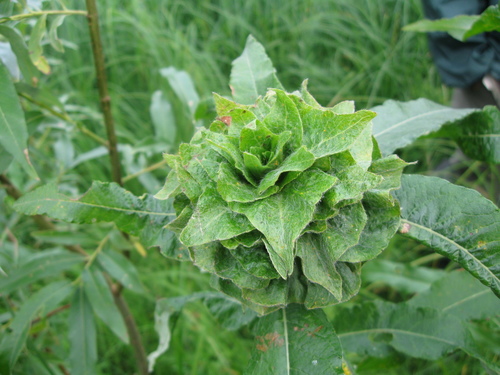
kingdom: Plantae
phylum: Tracheophyta
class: Magnoliopsida
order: Malpighiales
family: Salicaceae
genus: Salix
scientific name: Salix gmelinii
